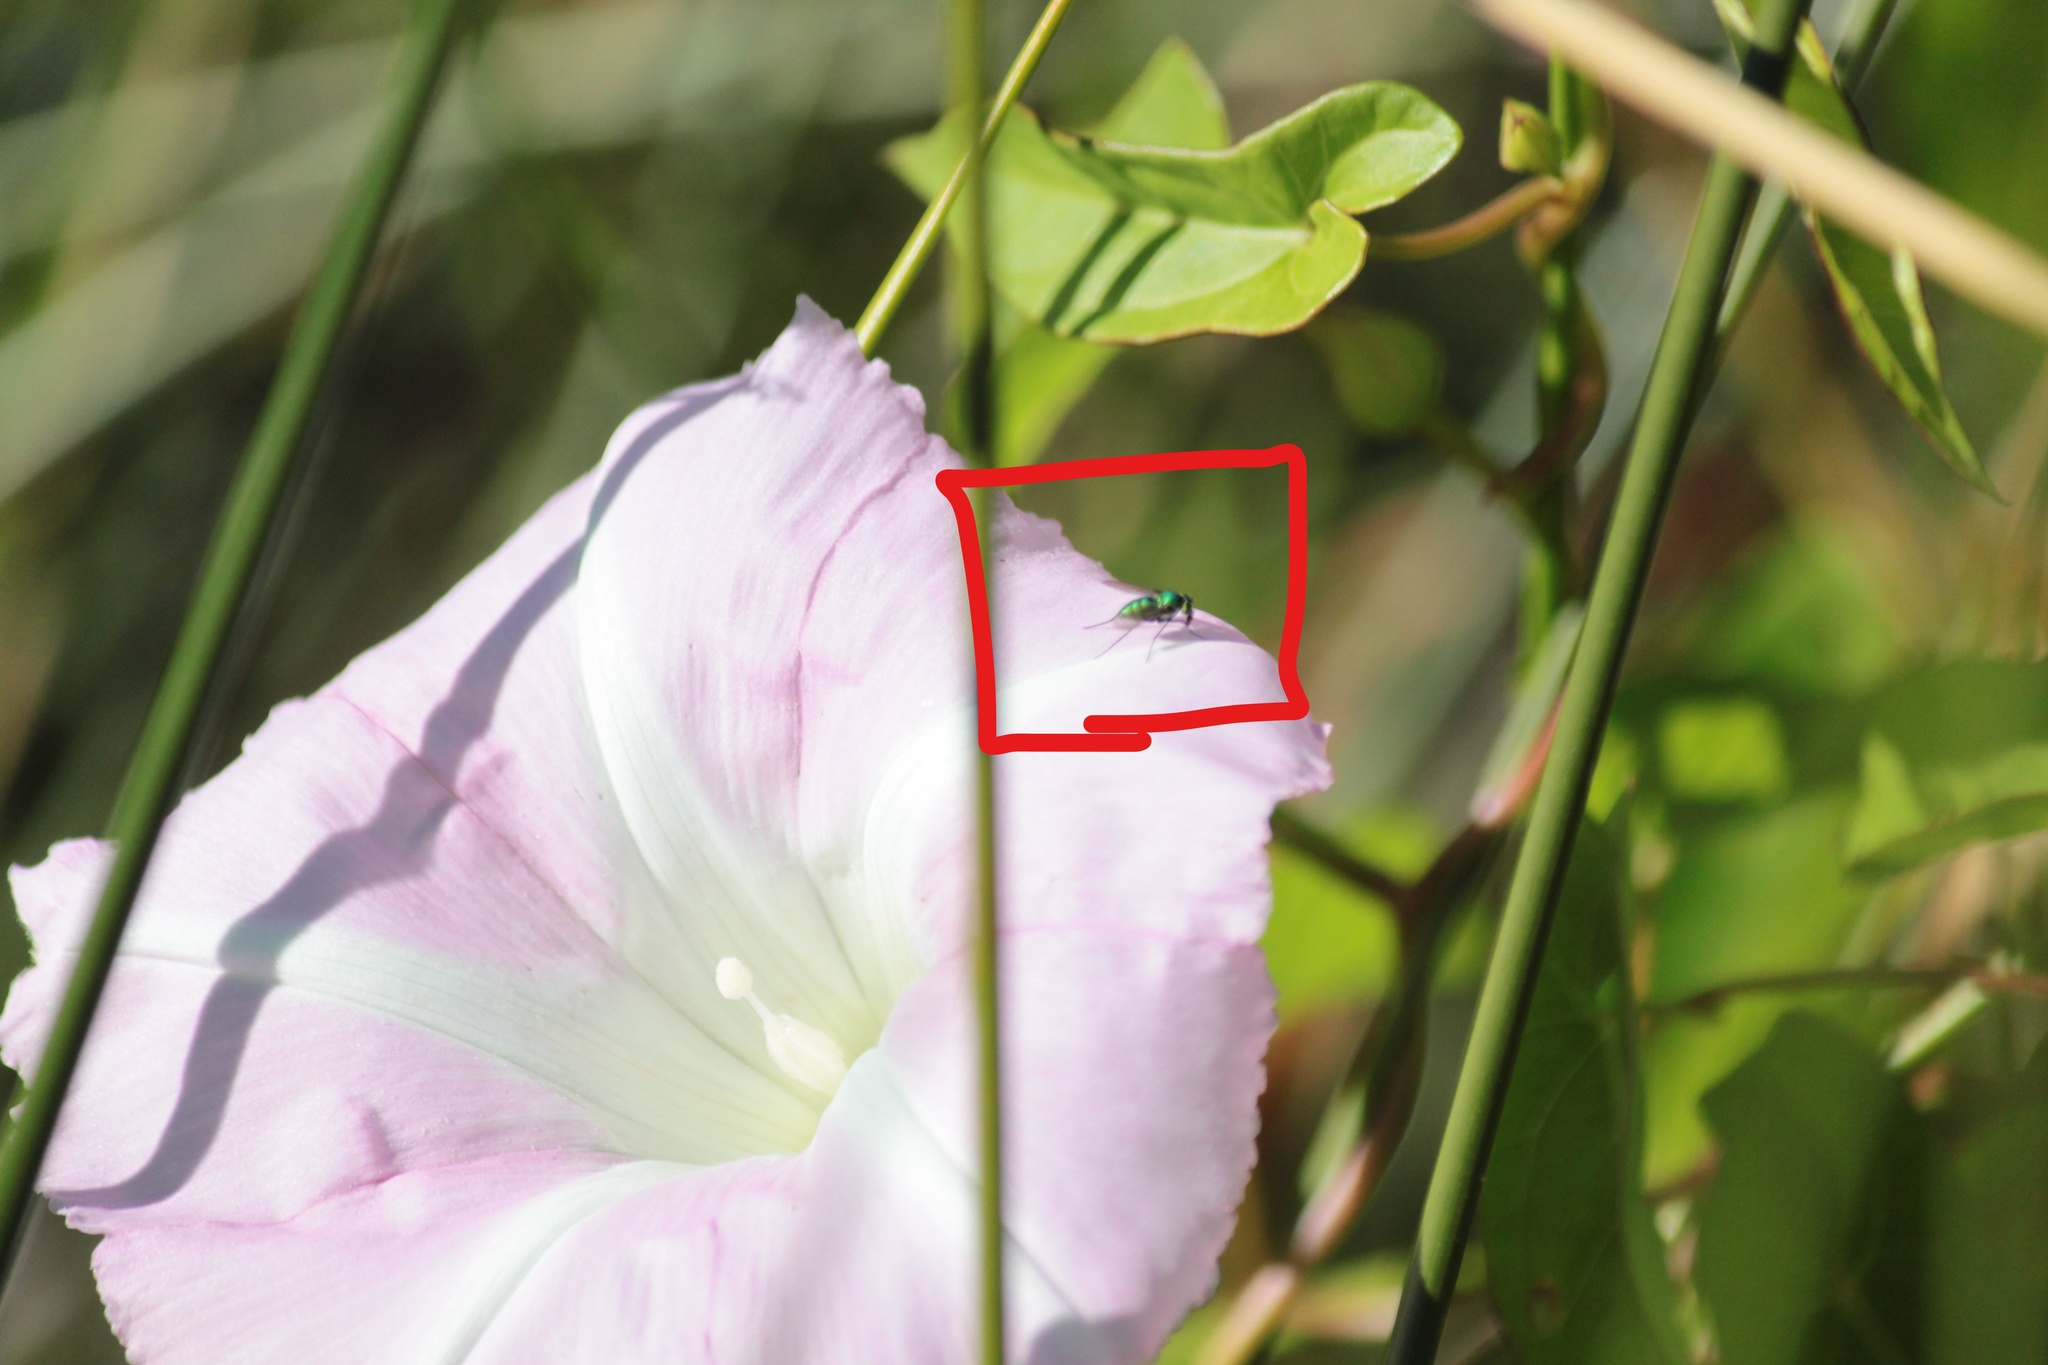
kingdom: Animalia
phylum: Arthropoda
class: Insecta
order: Diptera
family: Dolichopodidae
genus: Parentia
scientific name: Parentia
